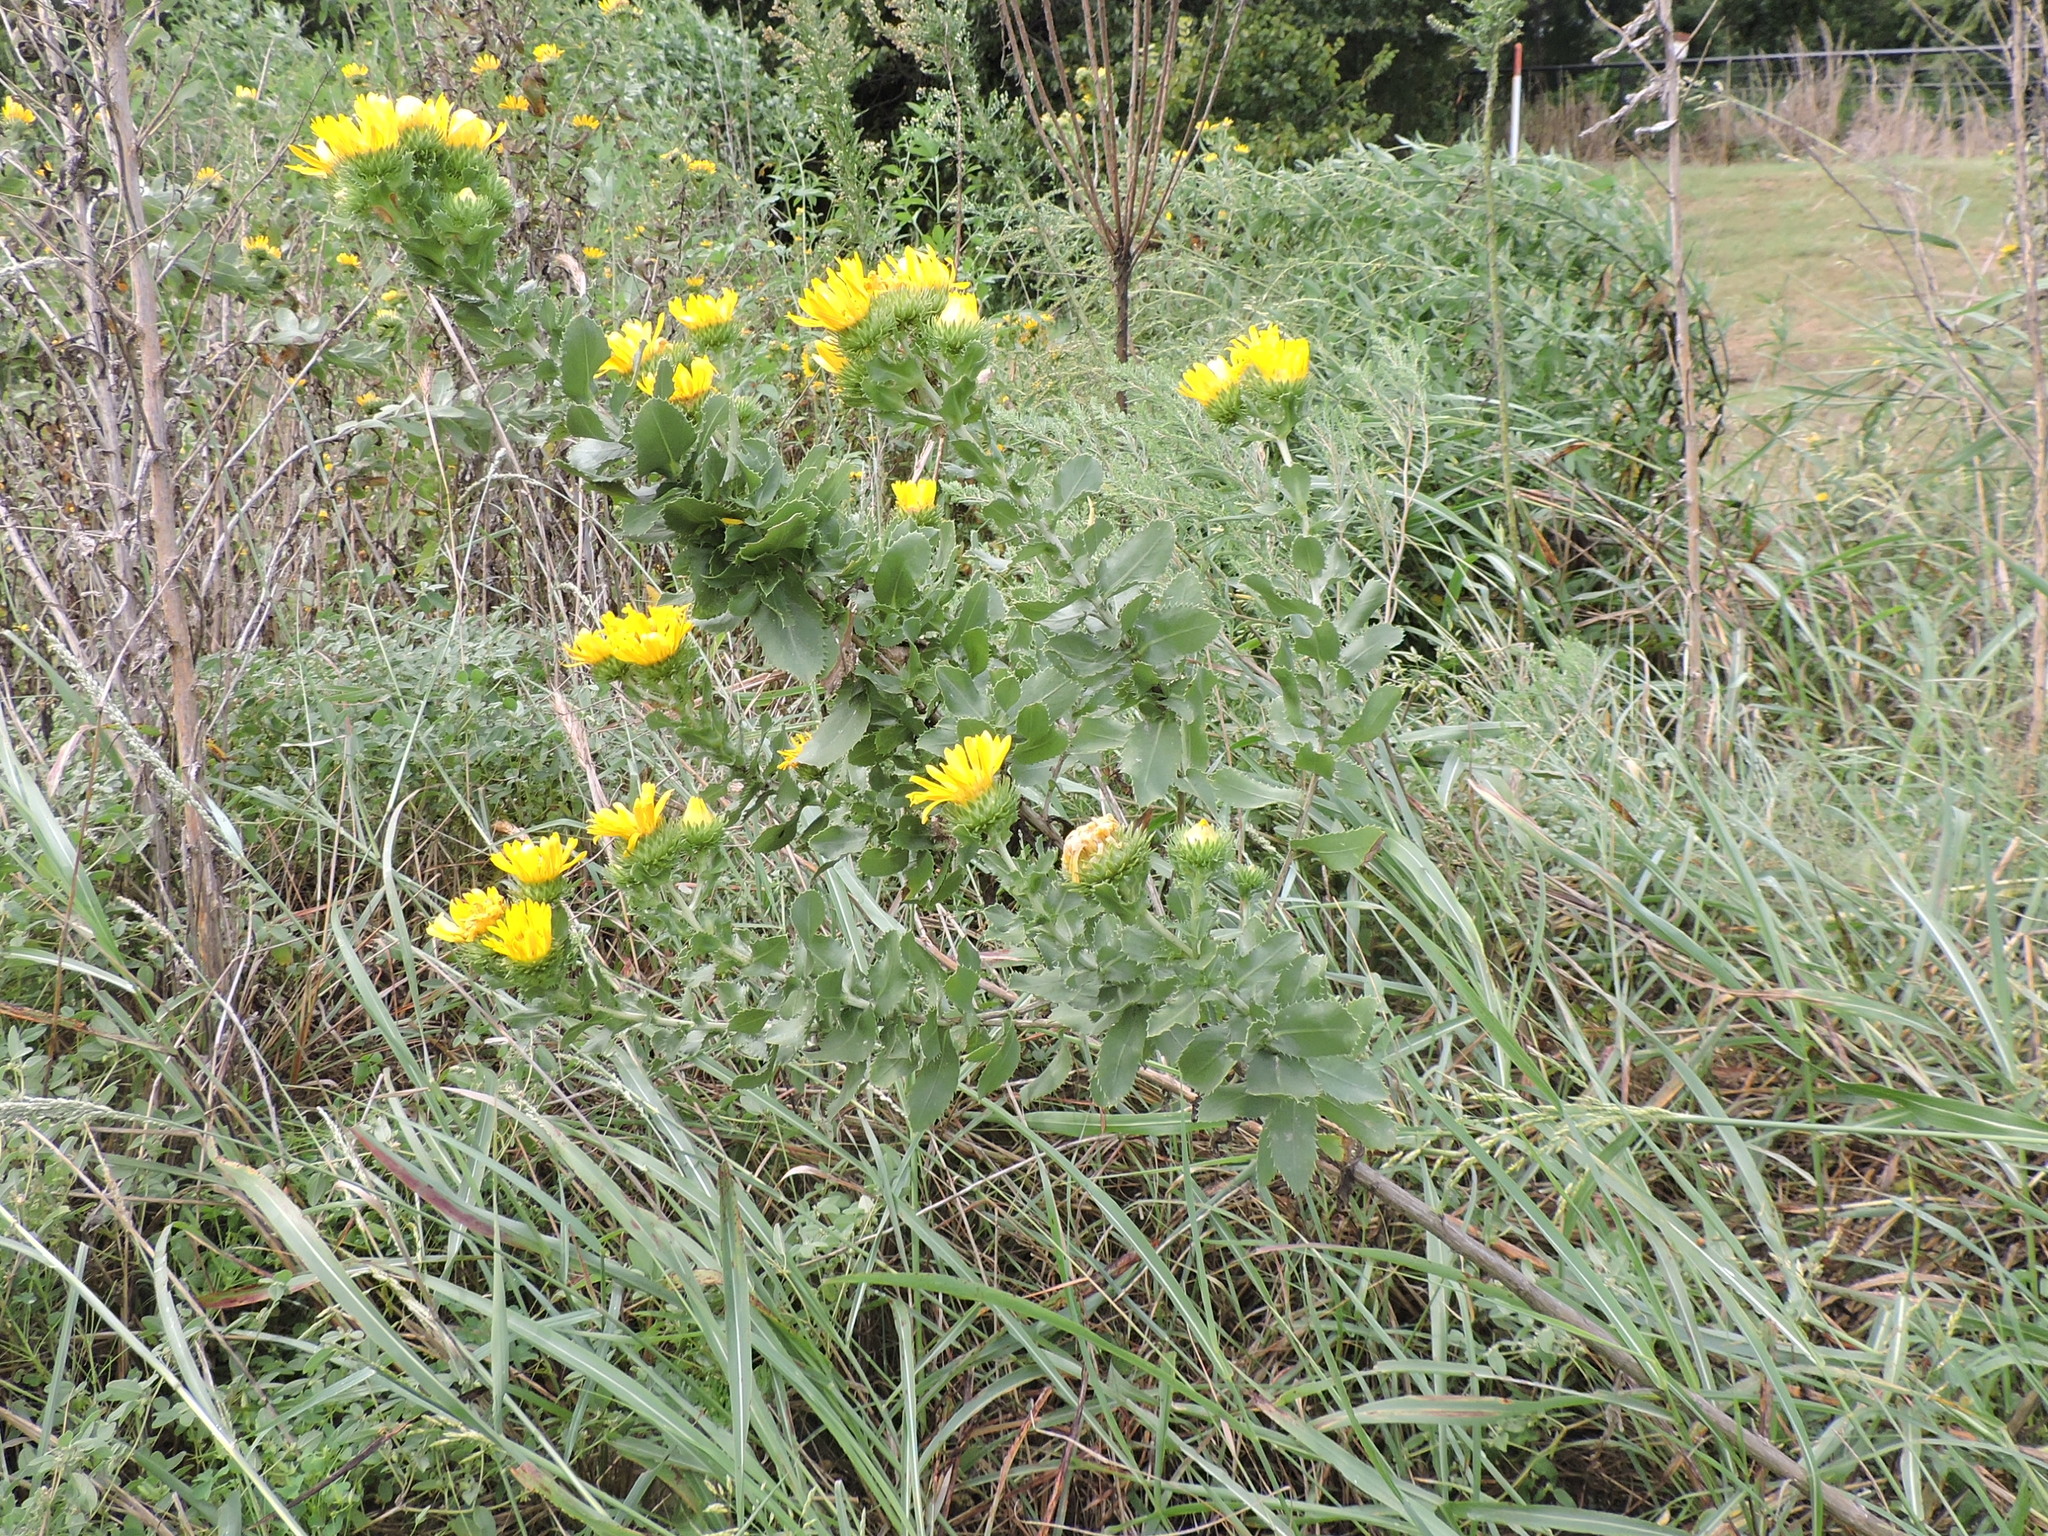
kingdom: Plantae
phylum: Tracheophyta
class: Magnoliopsida
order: Asterales
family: Asteraceae
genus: Grindelia
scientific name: Grindelia ciliata
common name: Goldenweed
